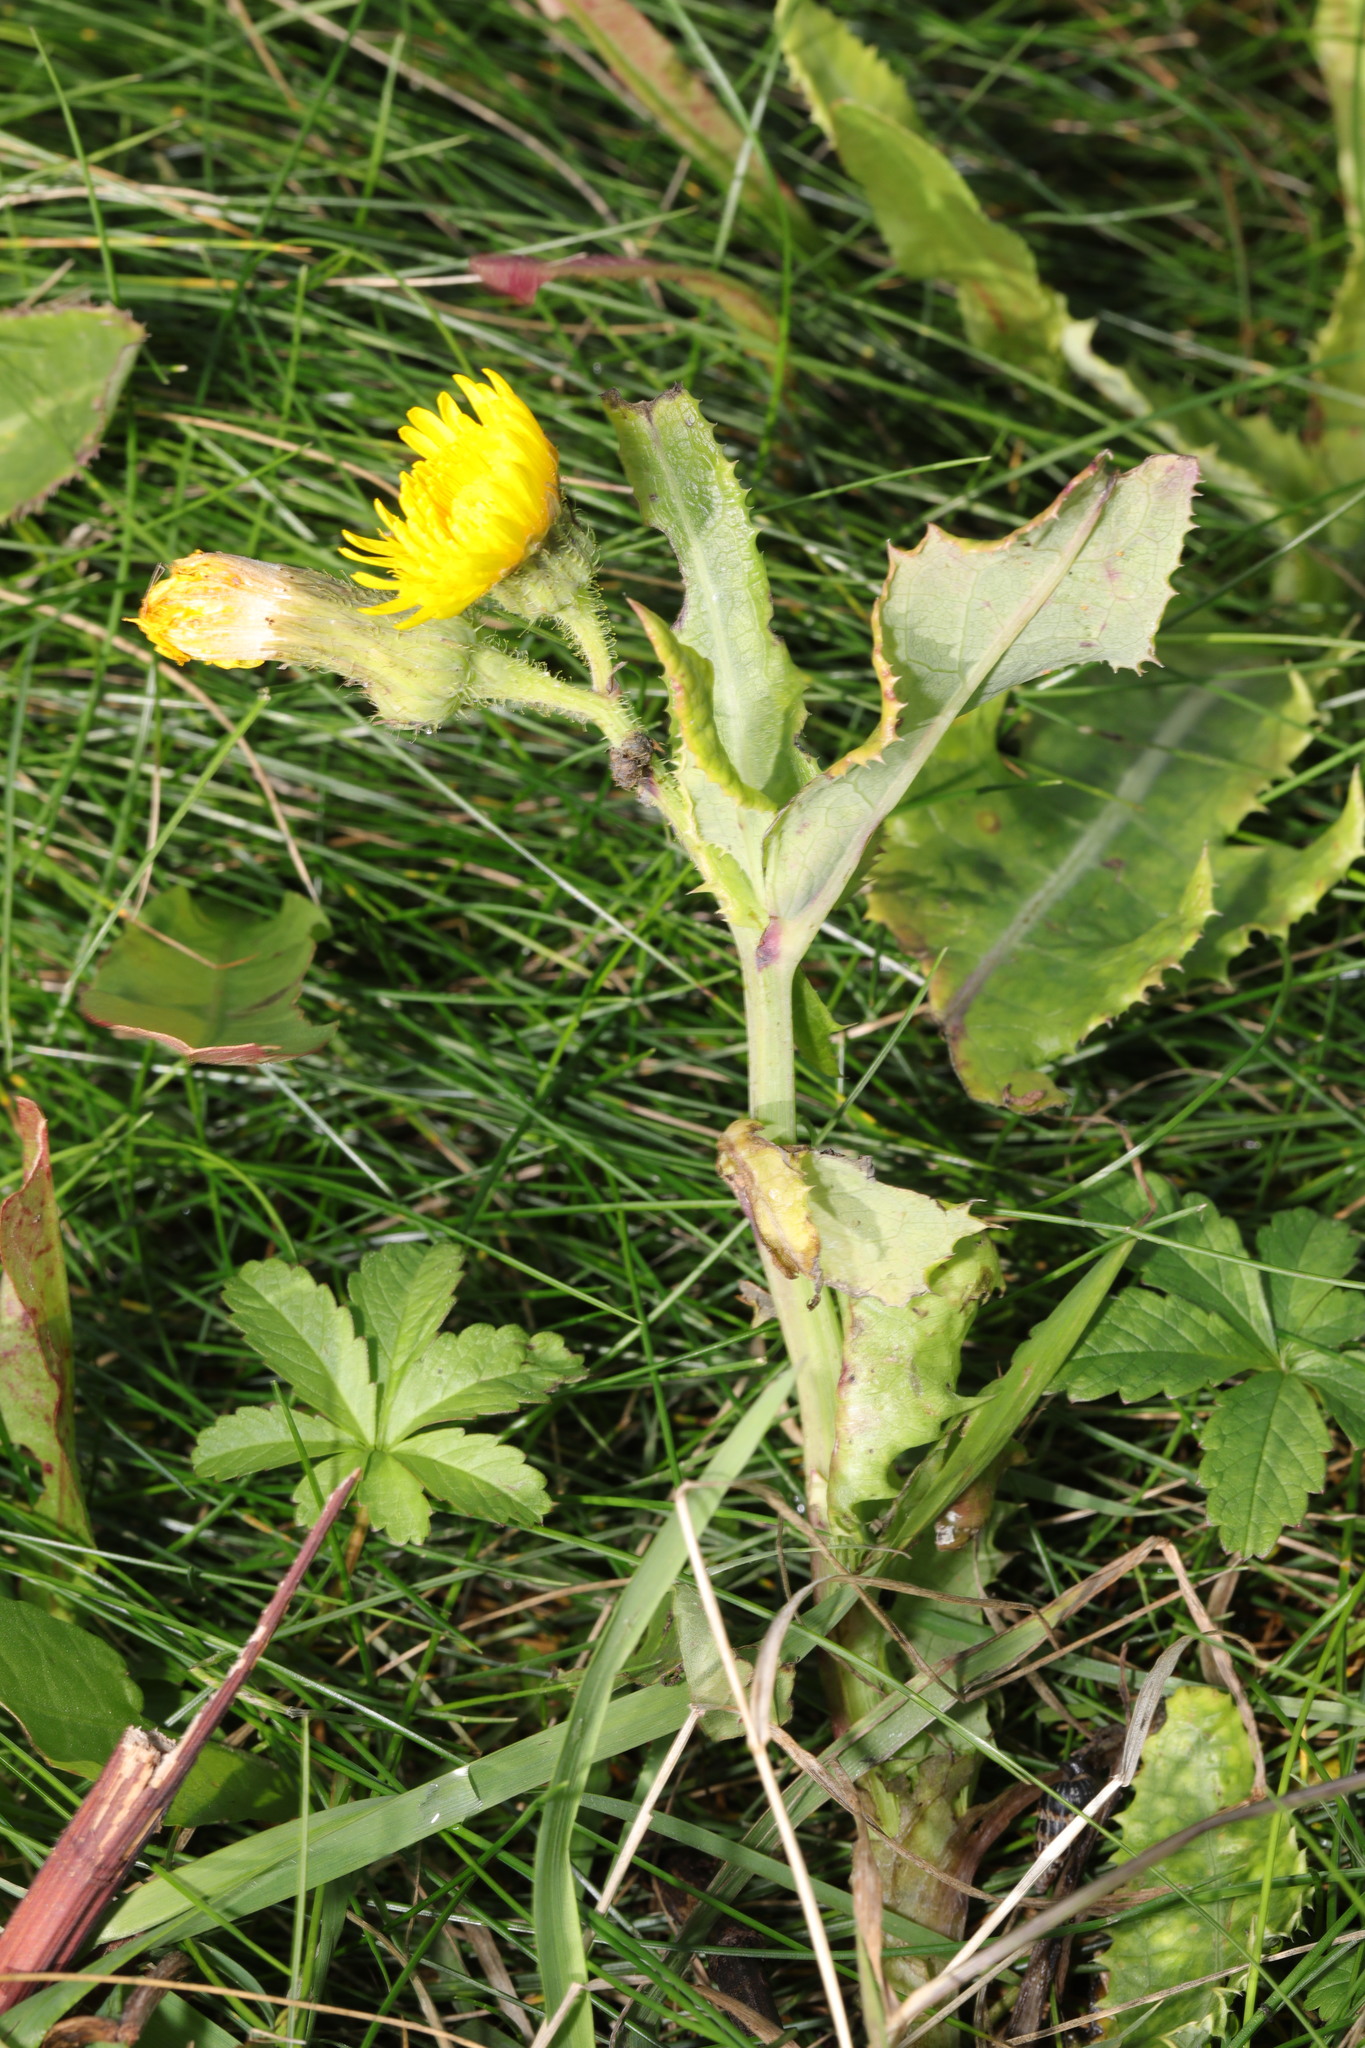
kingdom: Plantae
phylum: Tracheophyta
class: Magnoliopsida
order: Asterales
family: Asteraceae
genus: Sonchus
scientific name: Sonchus arvensis
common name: Perennial sow-thistle
